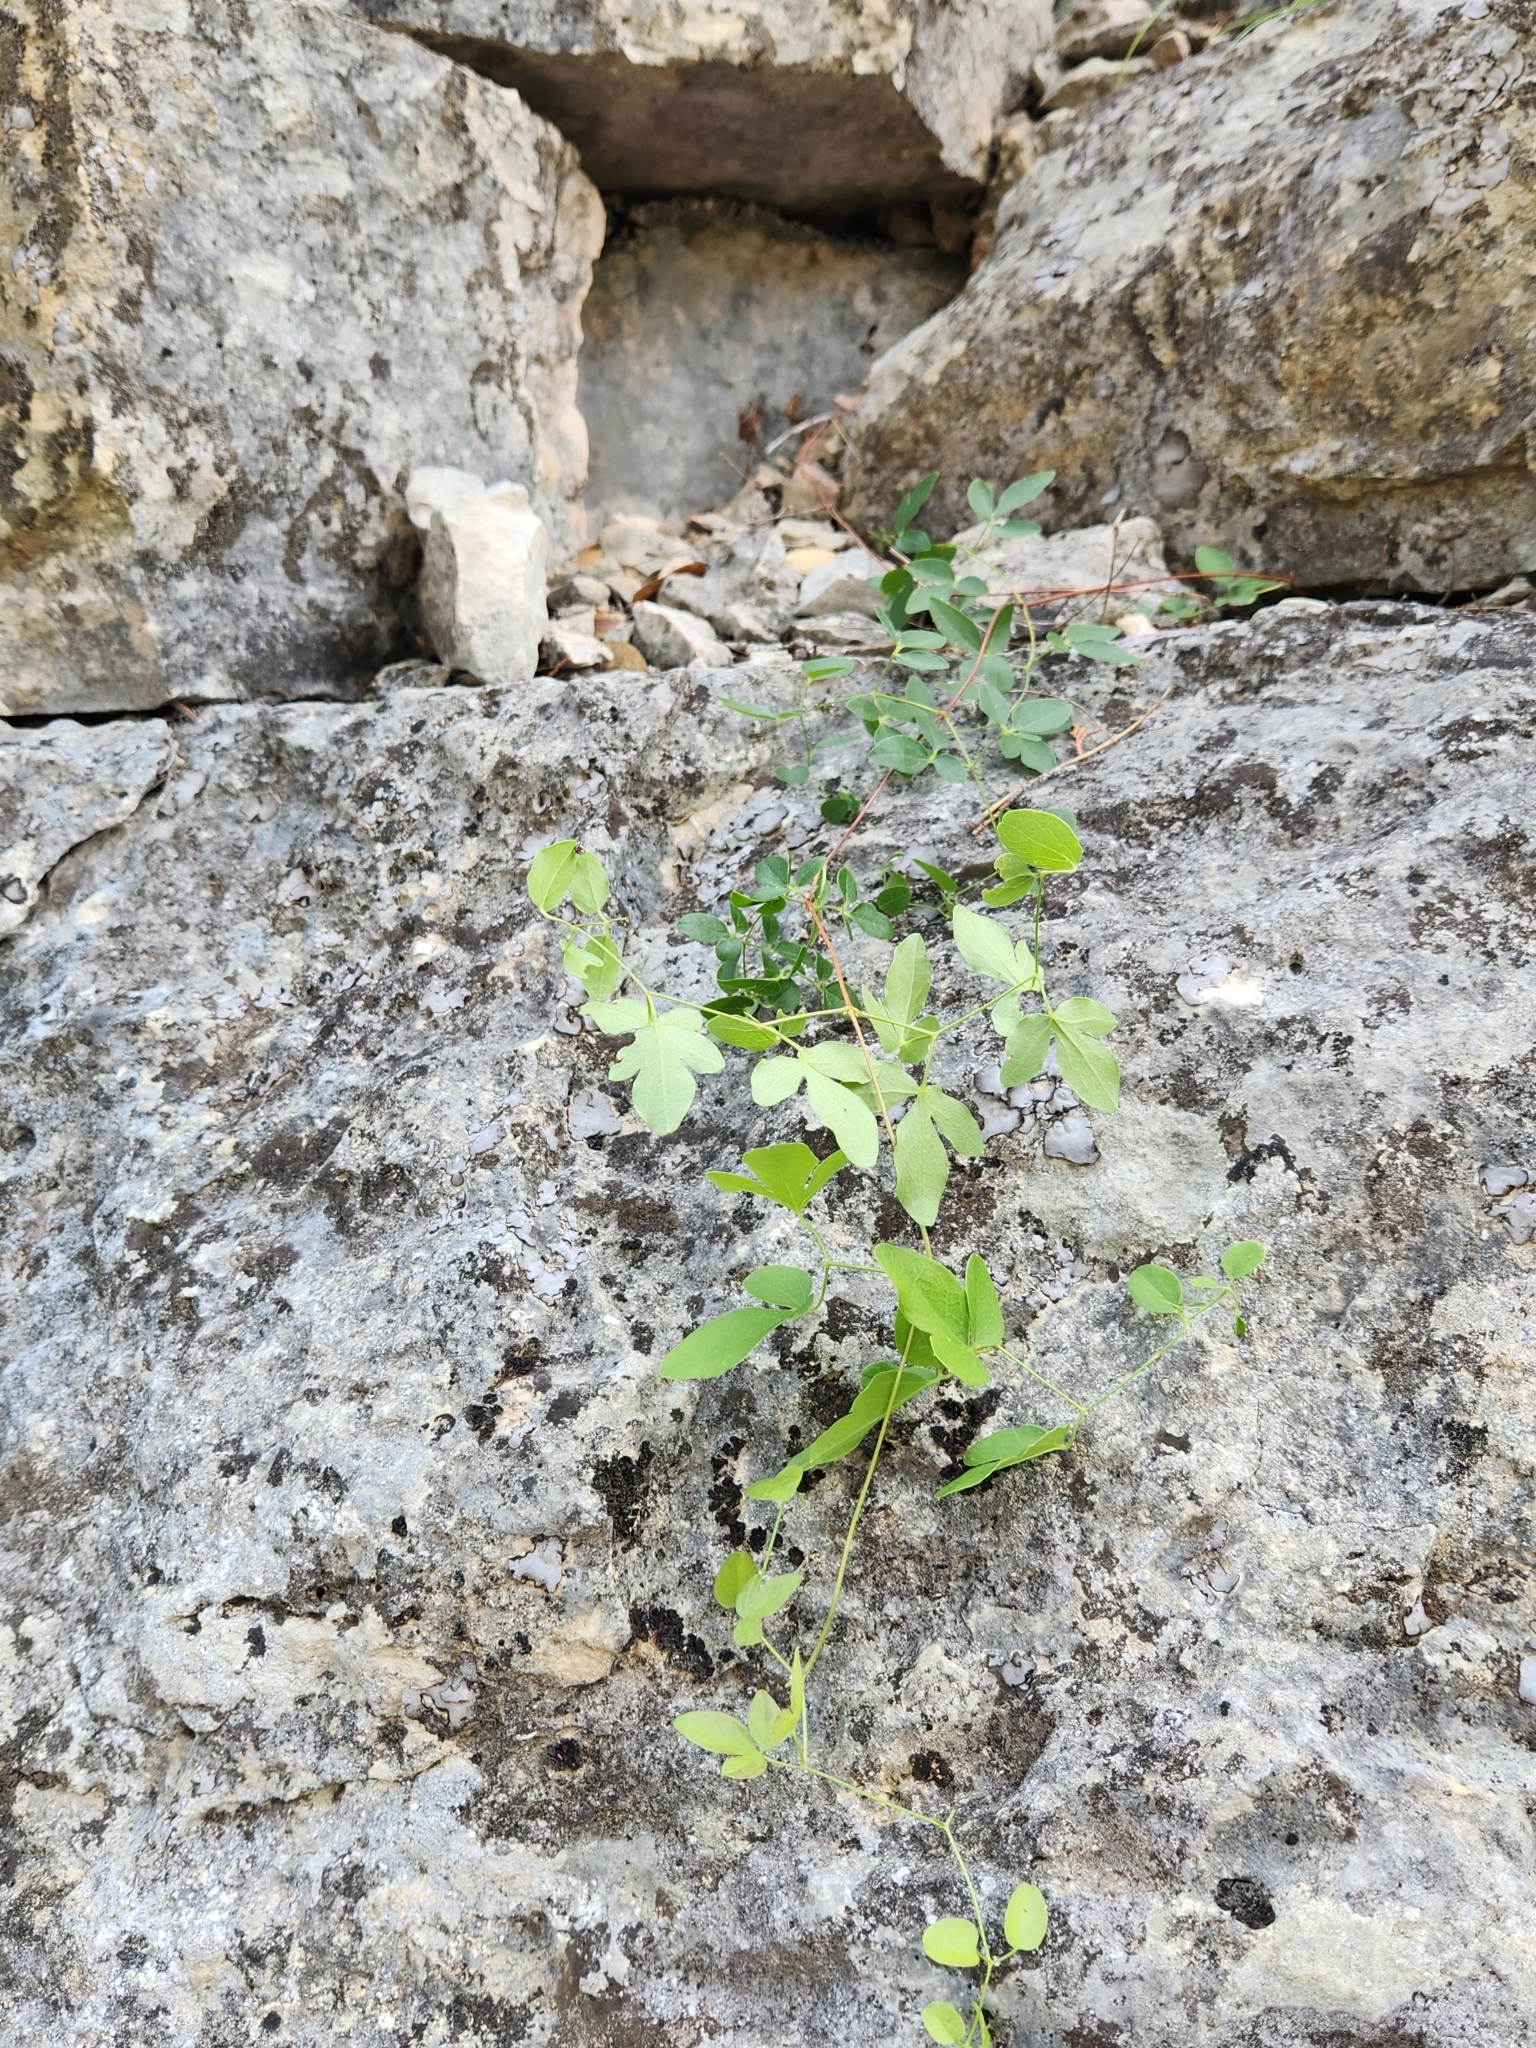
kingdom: Plantae
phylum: Tracheophyta
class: Magnoliopsida
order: Ranunculales
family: Ranunculaceae
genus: Clematis
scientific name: Clematis pitcheri
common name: Bellflower clematis
